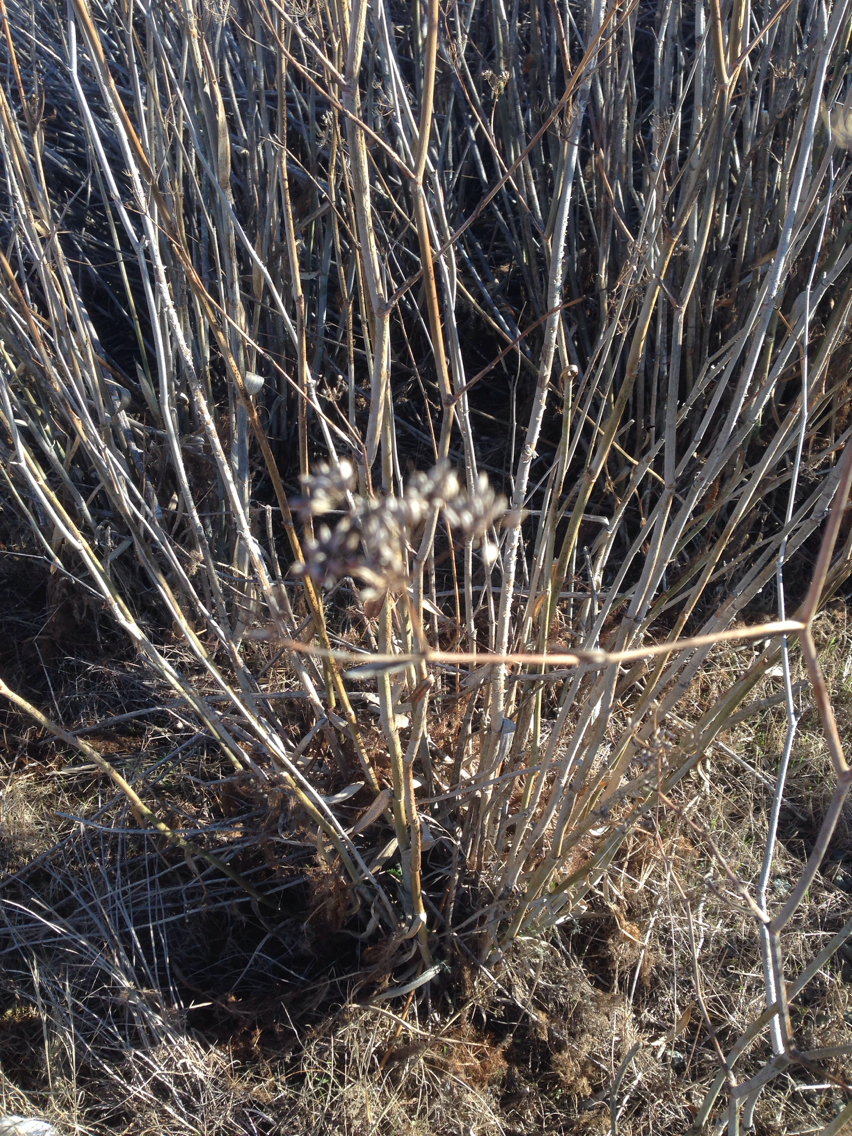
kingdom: Plantae
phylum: Tracheophyta
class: Magnoliopsida
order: Apiales
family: Apiaceae
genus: Foeniculum
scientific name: Foeniculum vulgare
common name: Fennel
